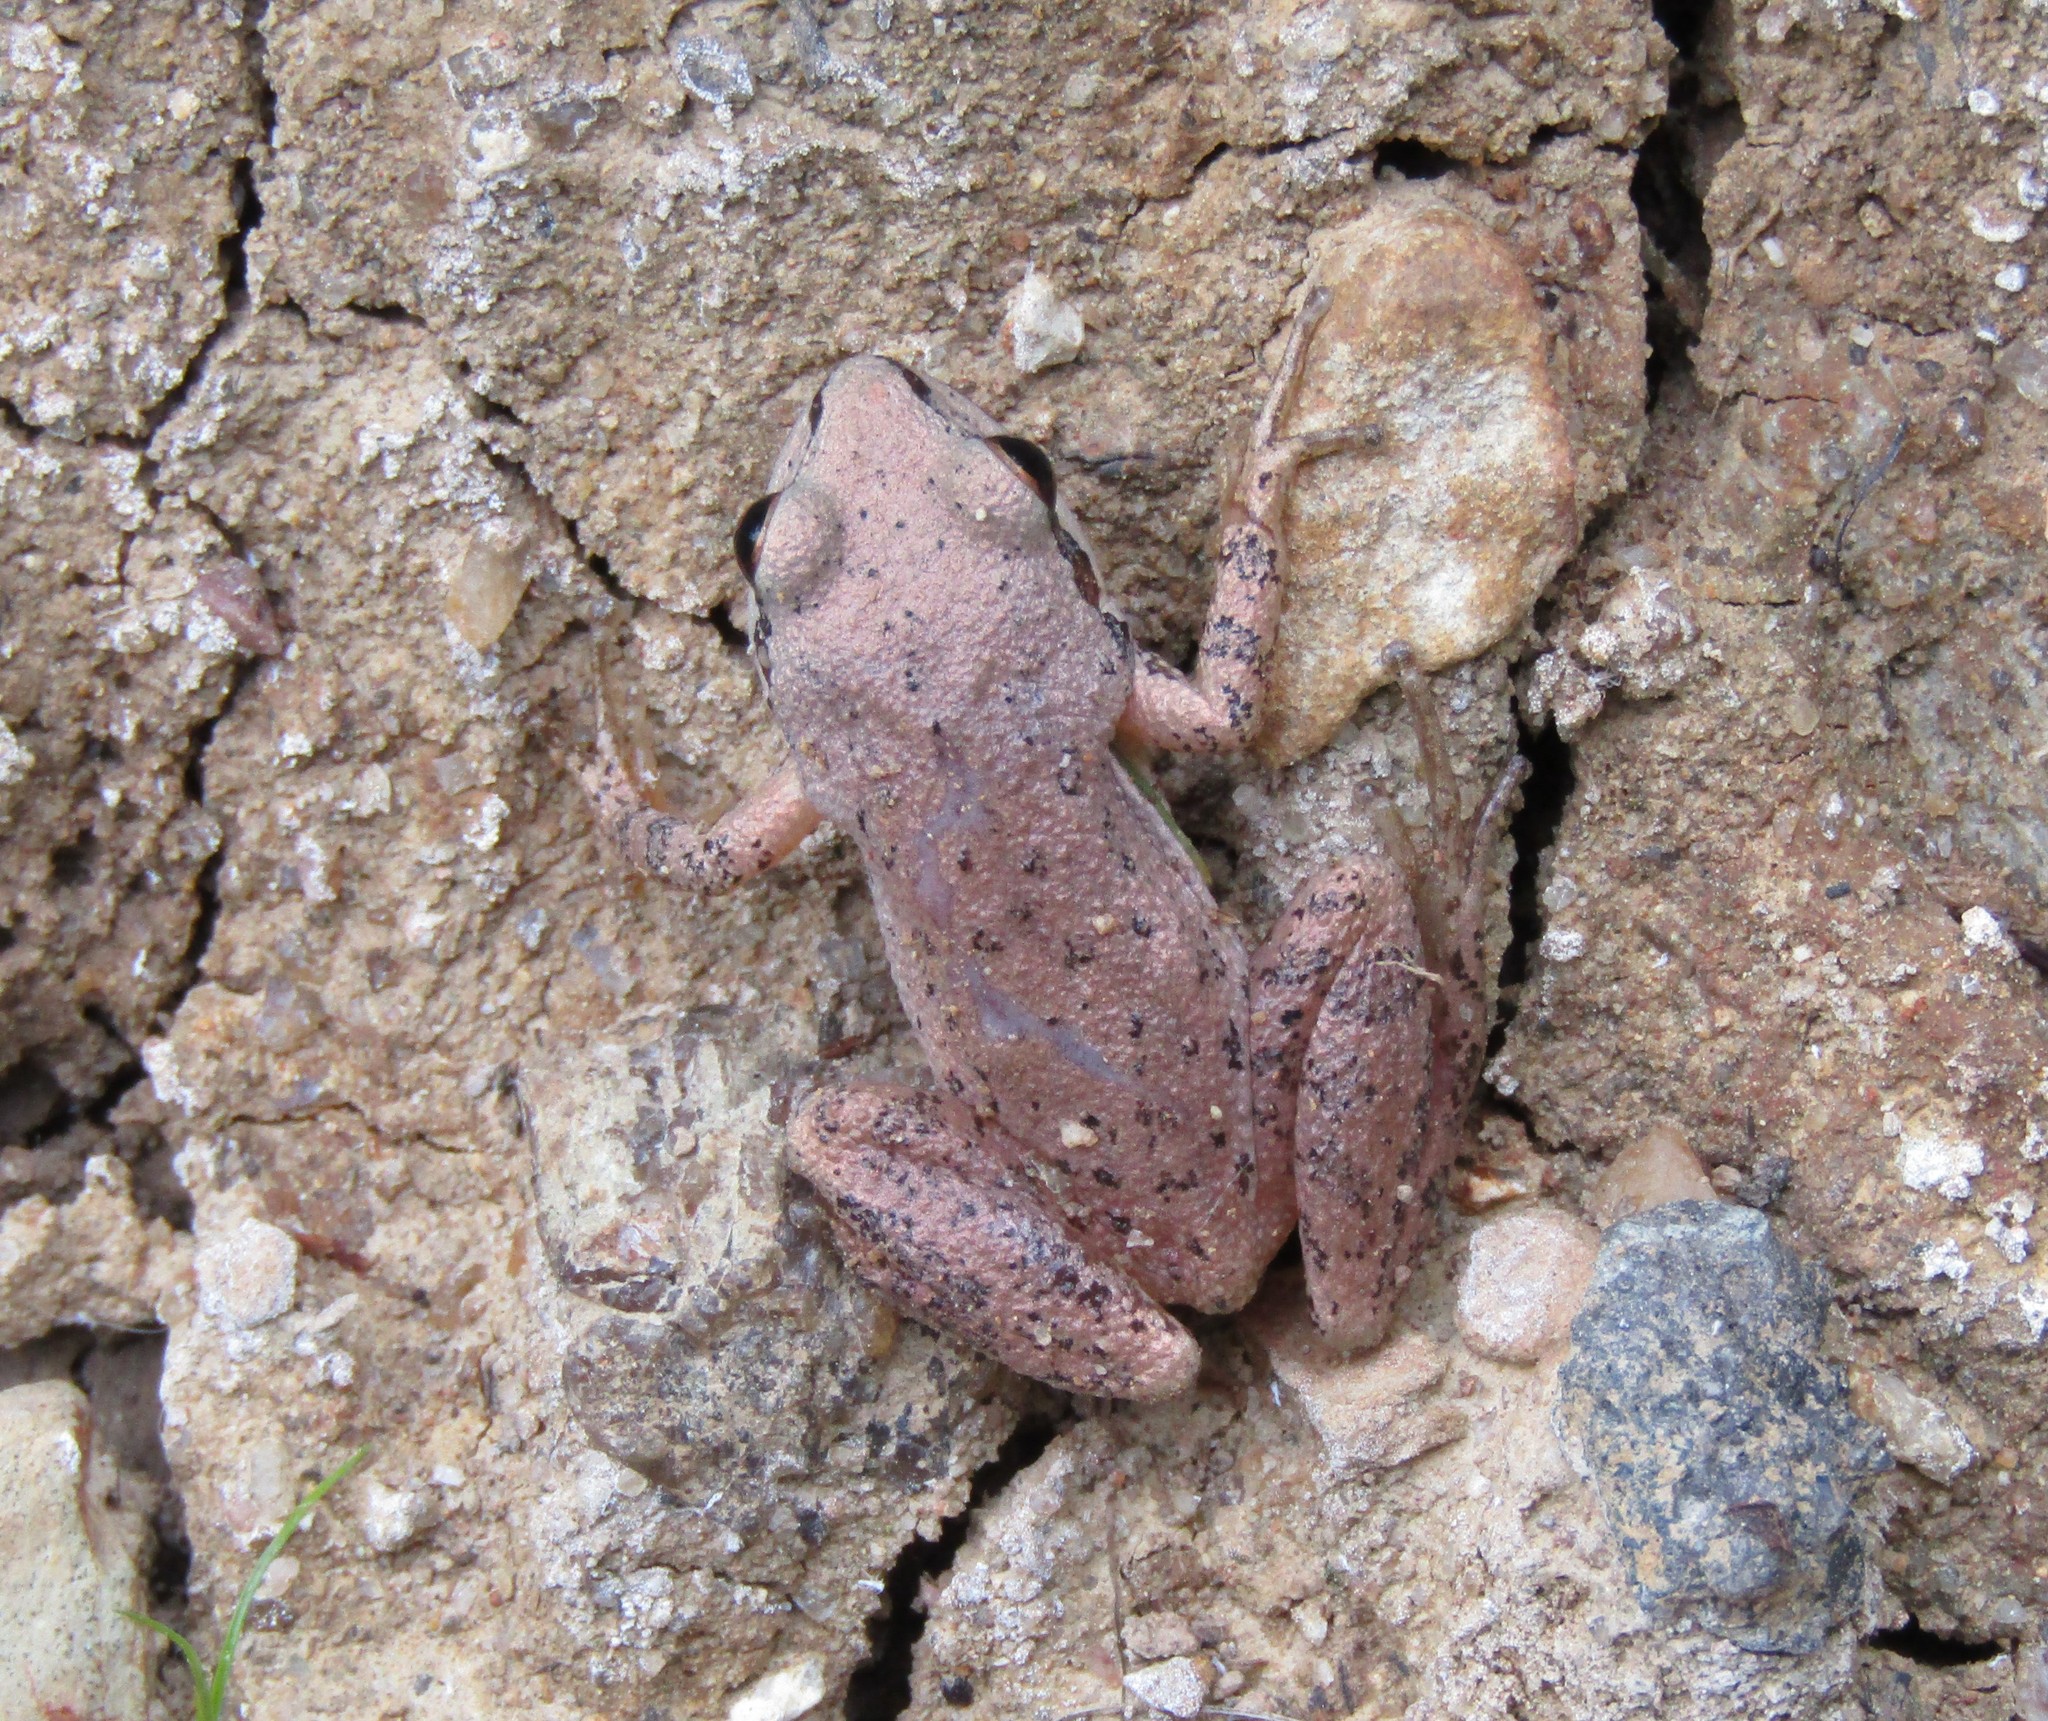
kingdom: Animalia
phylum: Chordata
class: Amphibia
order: Anura
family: Hylidae
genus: Pseudacris
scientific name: Pseudacris feriarum
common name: Upland chorus frog
